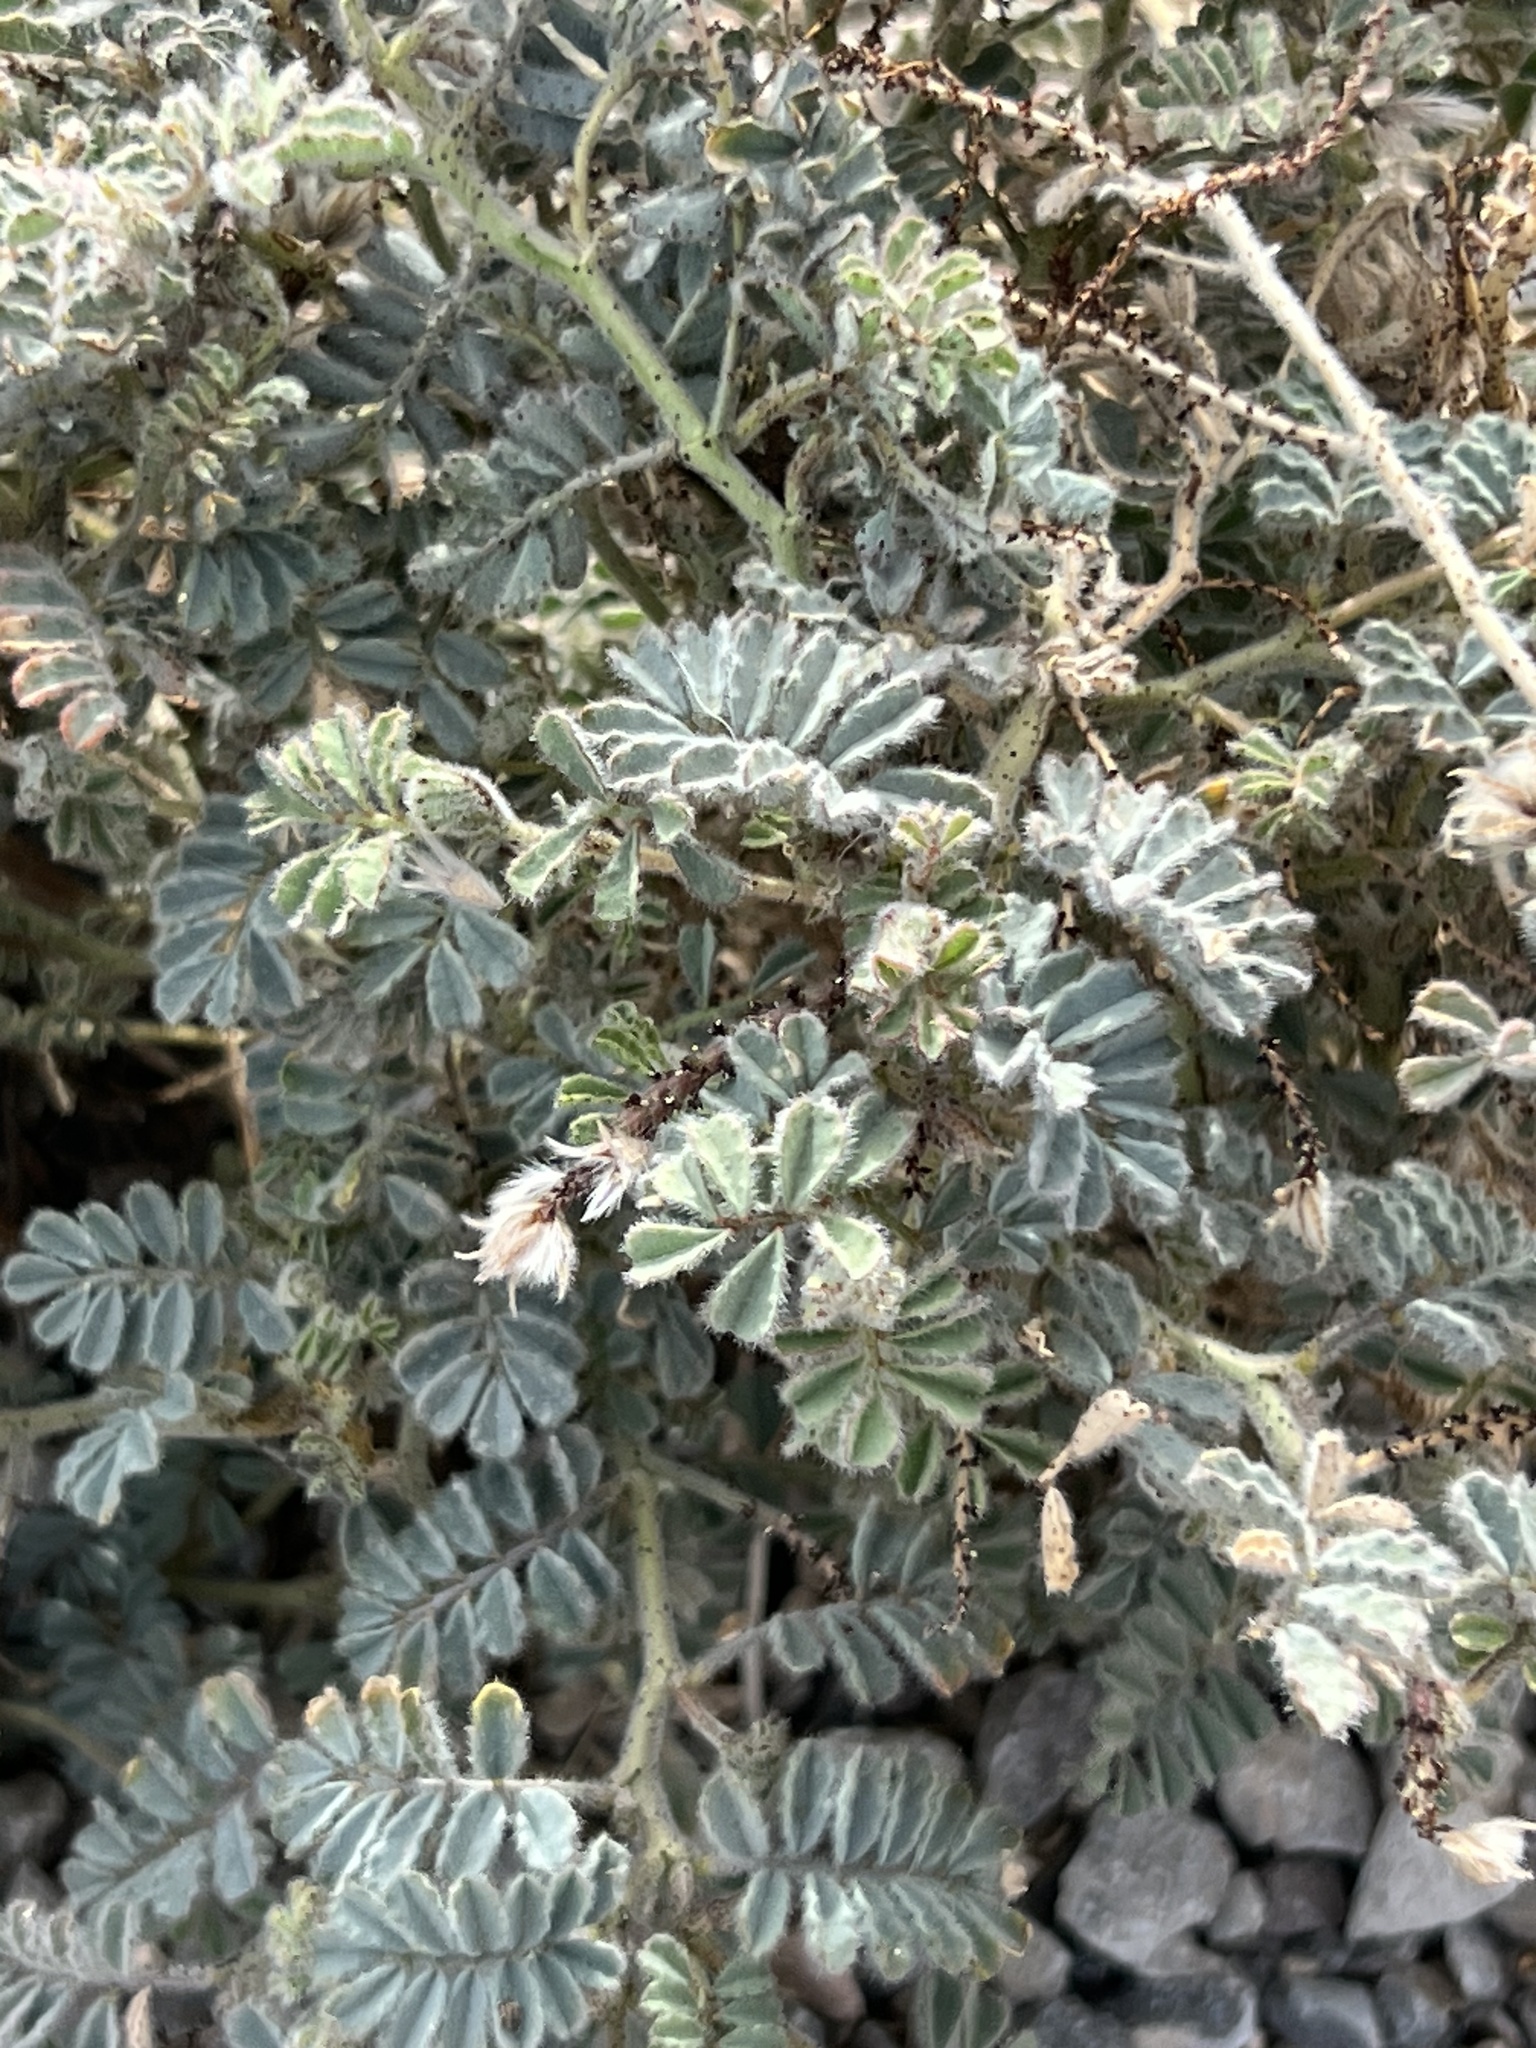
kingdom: Plantae
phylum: Tracheophyta
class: Magnoliopsida
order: Fabales
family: Fabaceae
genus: Dalea
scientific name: Dalea mollissima
